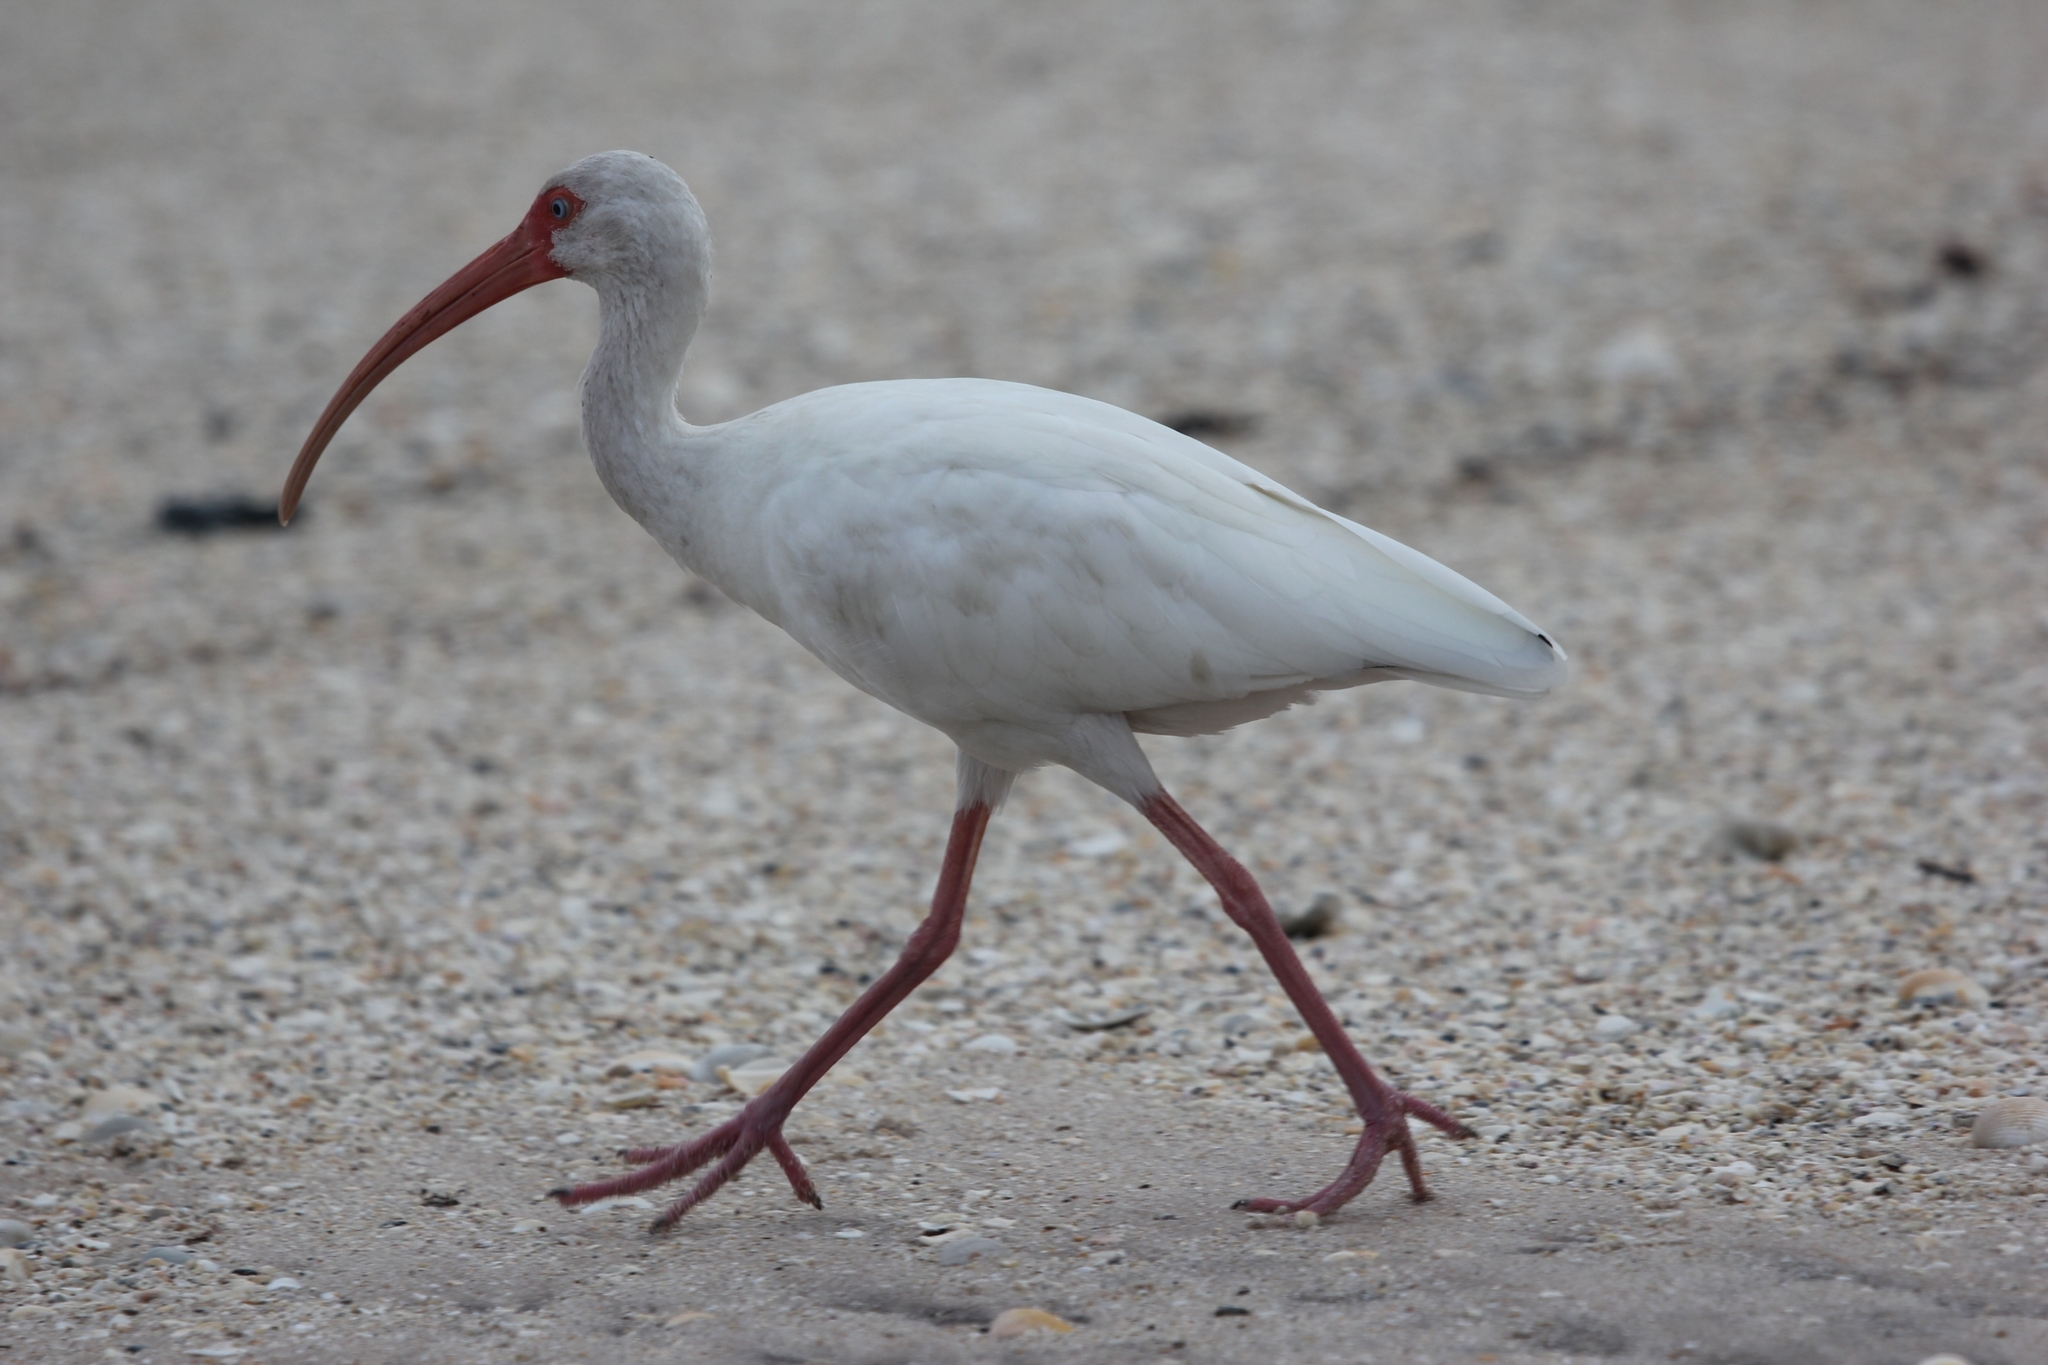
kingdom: Animalia
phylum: Chordata
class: Aves
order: Pelecaniformes
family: Threskiornithidae
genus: Eudocimus
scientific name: Eudocimus albus
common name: White ibis
